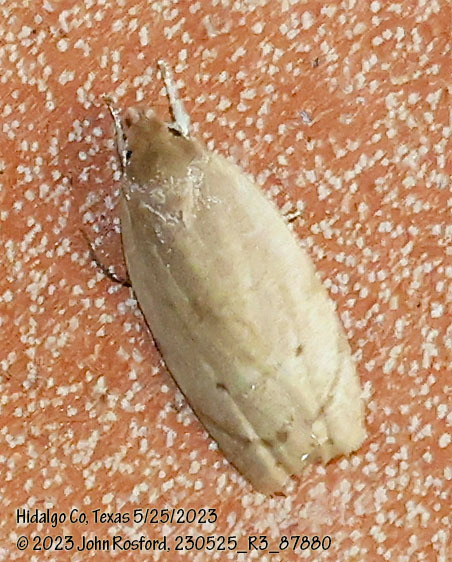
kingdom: Animalia
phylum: Arthropoda
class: Insecta
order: Lepidoptera
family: Depressariidae
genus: Antaeotricha
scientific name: Antaeotricha haesitans
